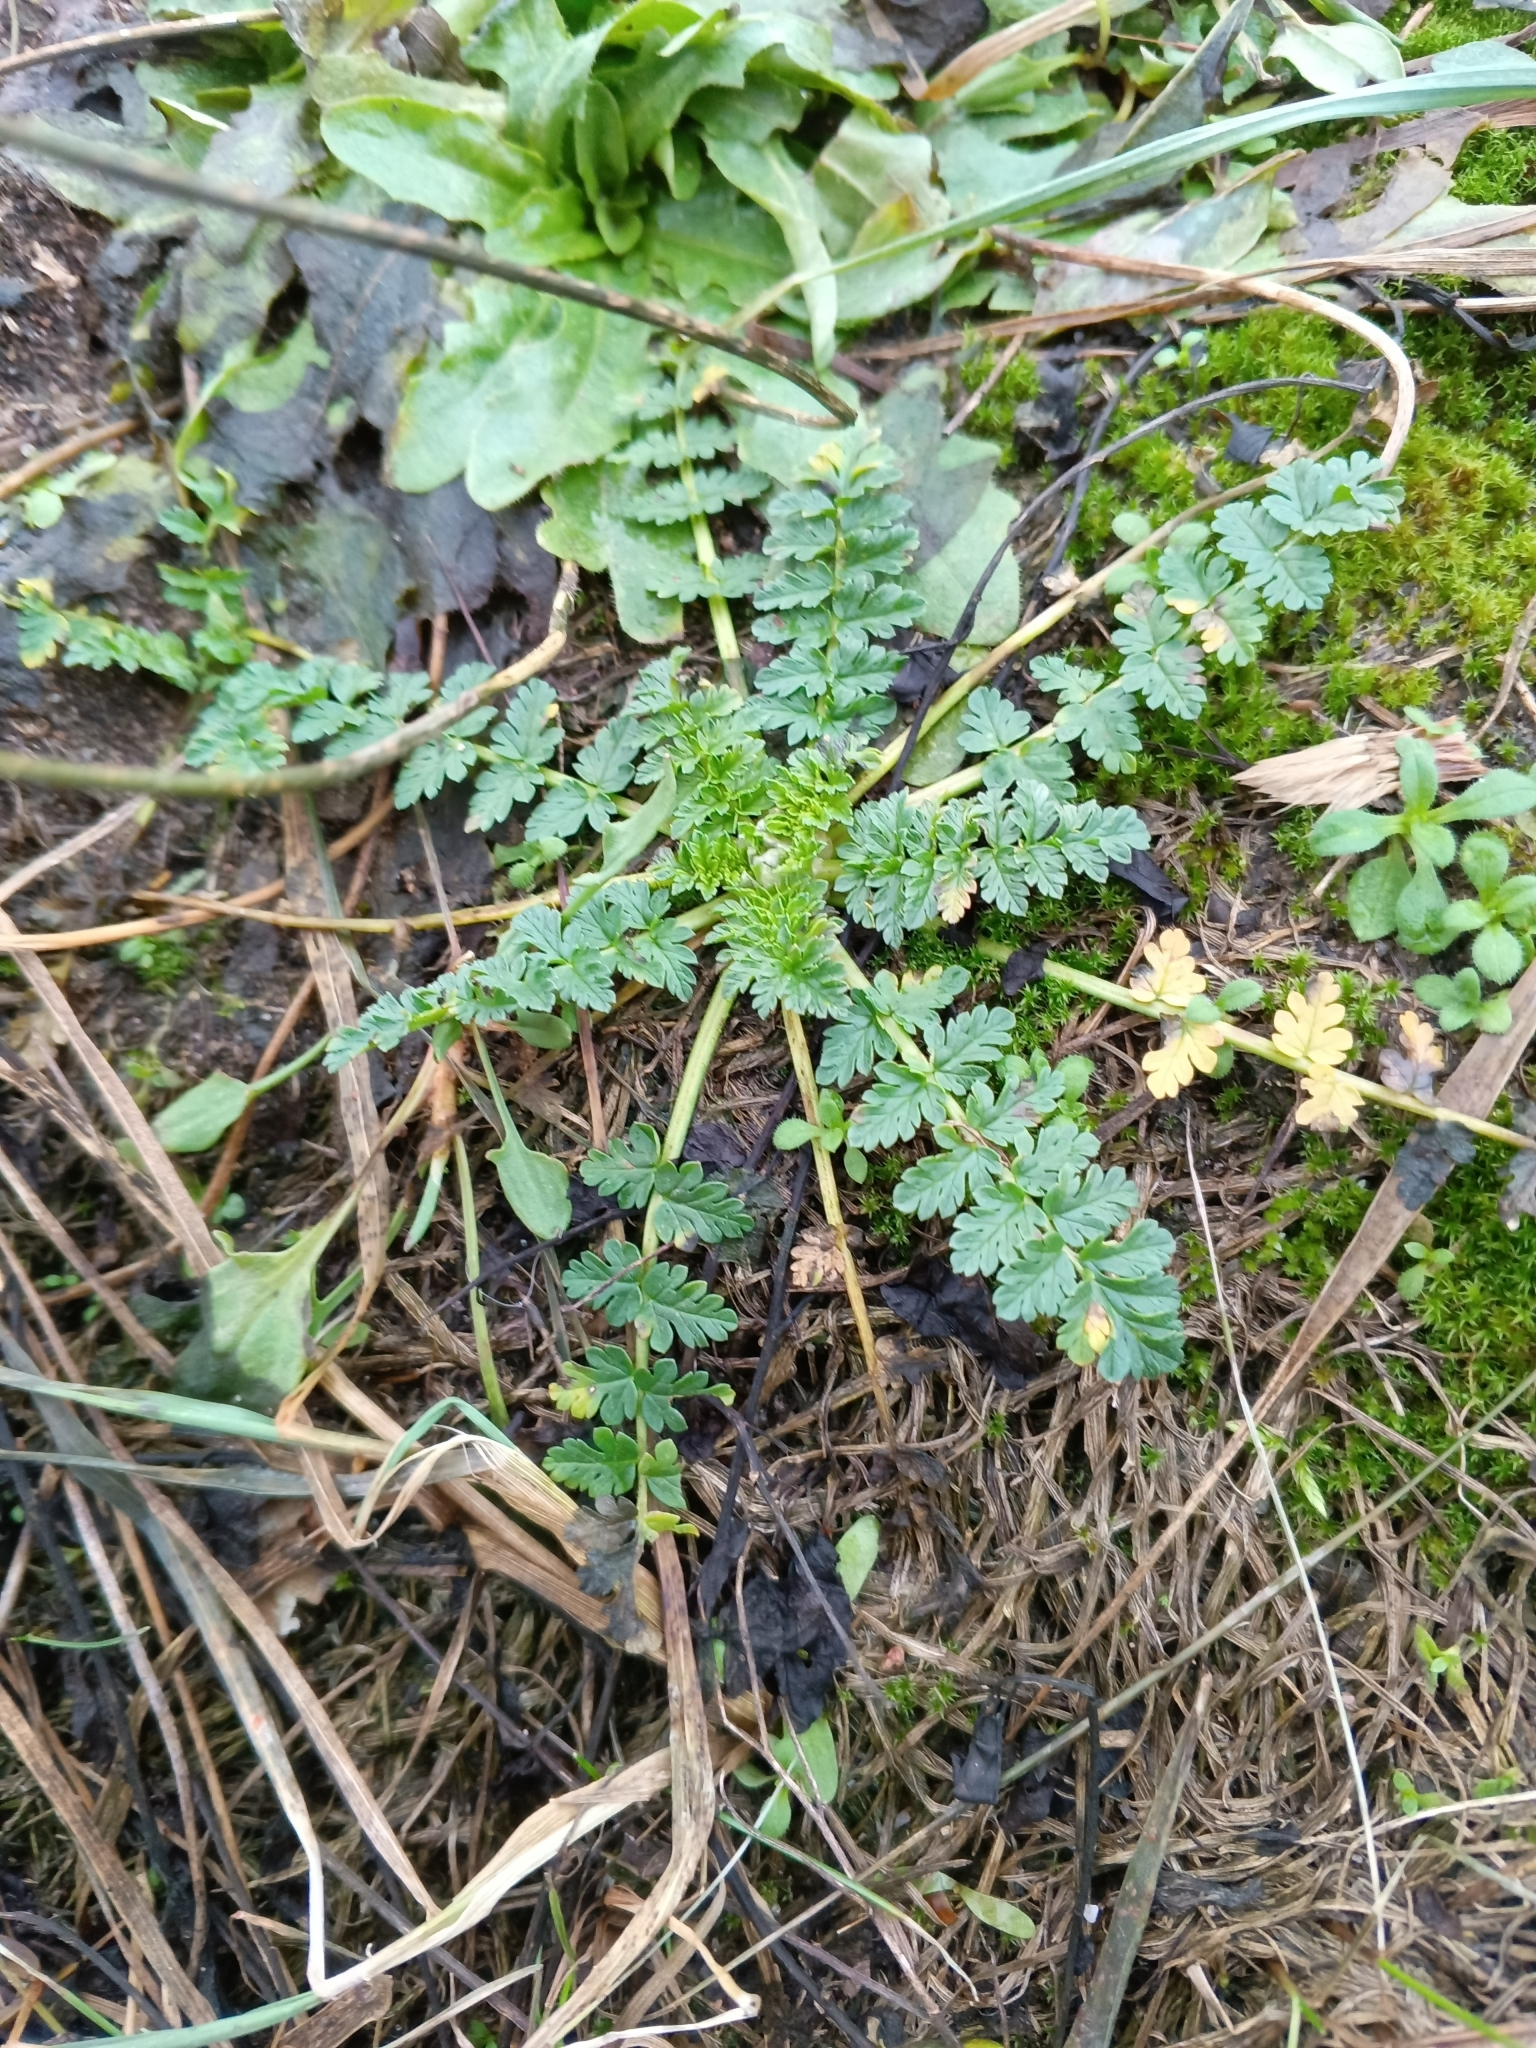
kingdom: Plantae
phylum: Tracheophyta
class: Magnoliopsida
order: Geraniales
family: Geraniaceae
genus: Erodium
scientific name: Erodium cicutarium
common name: Common stork's-bill
